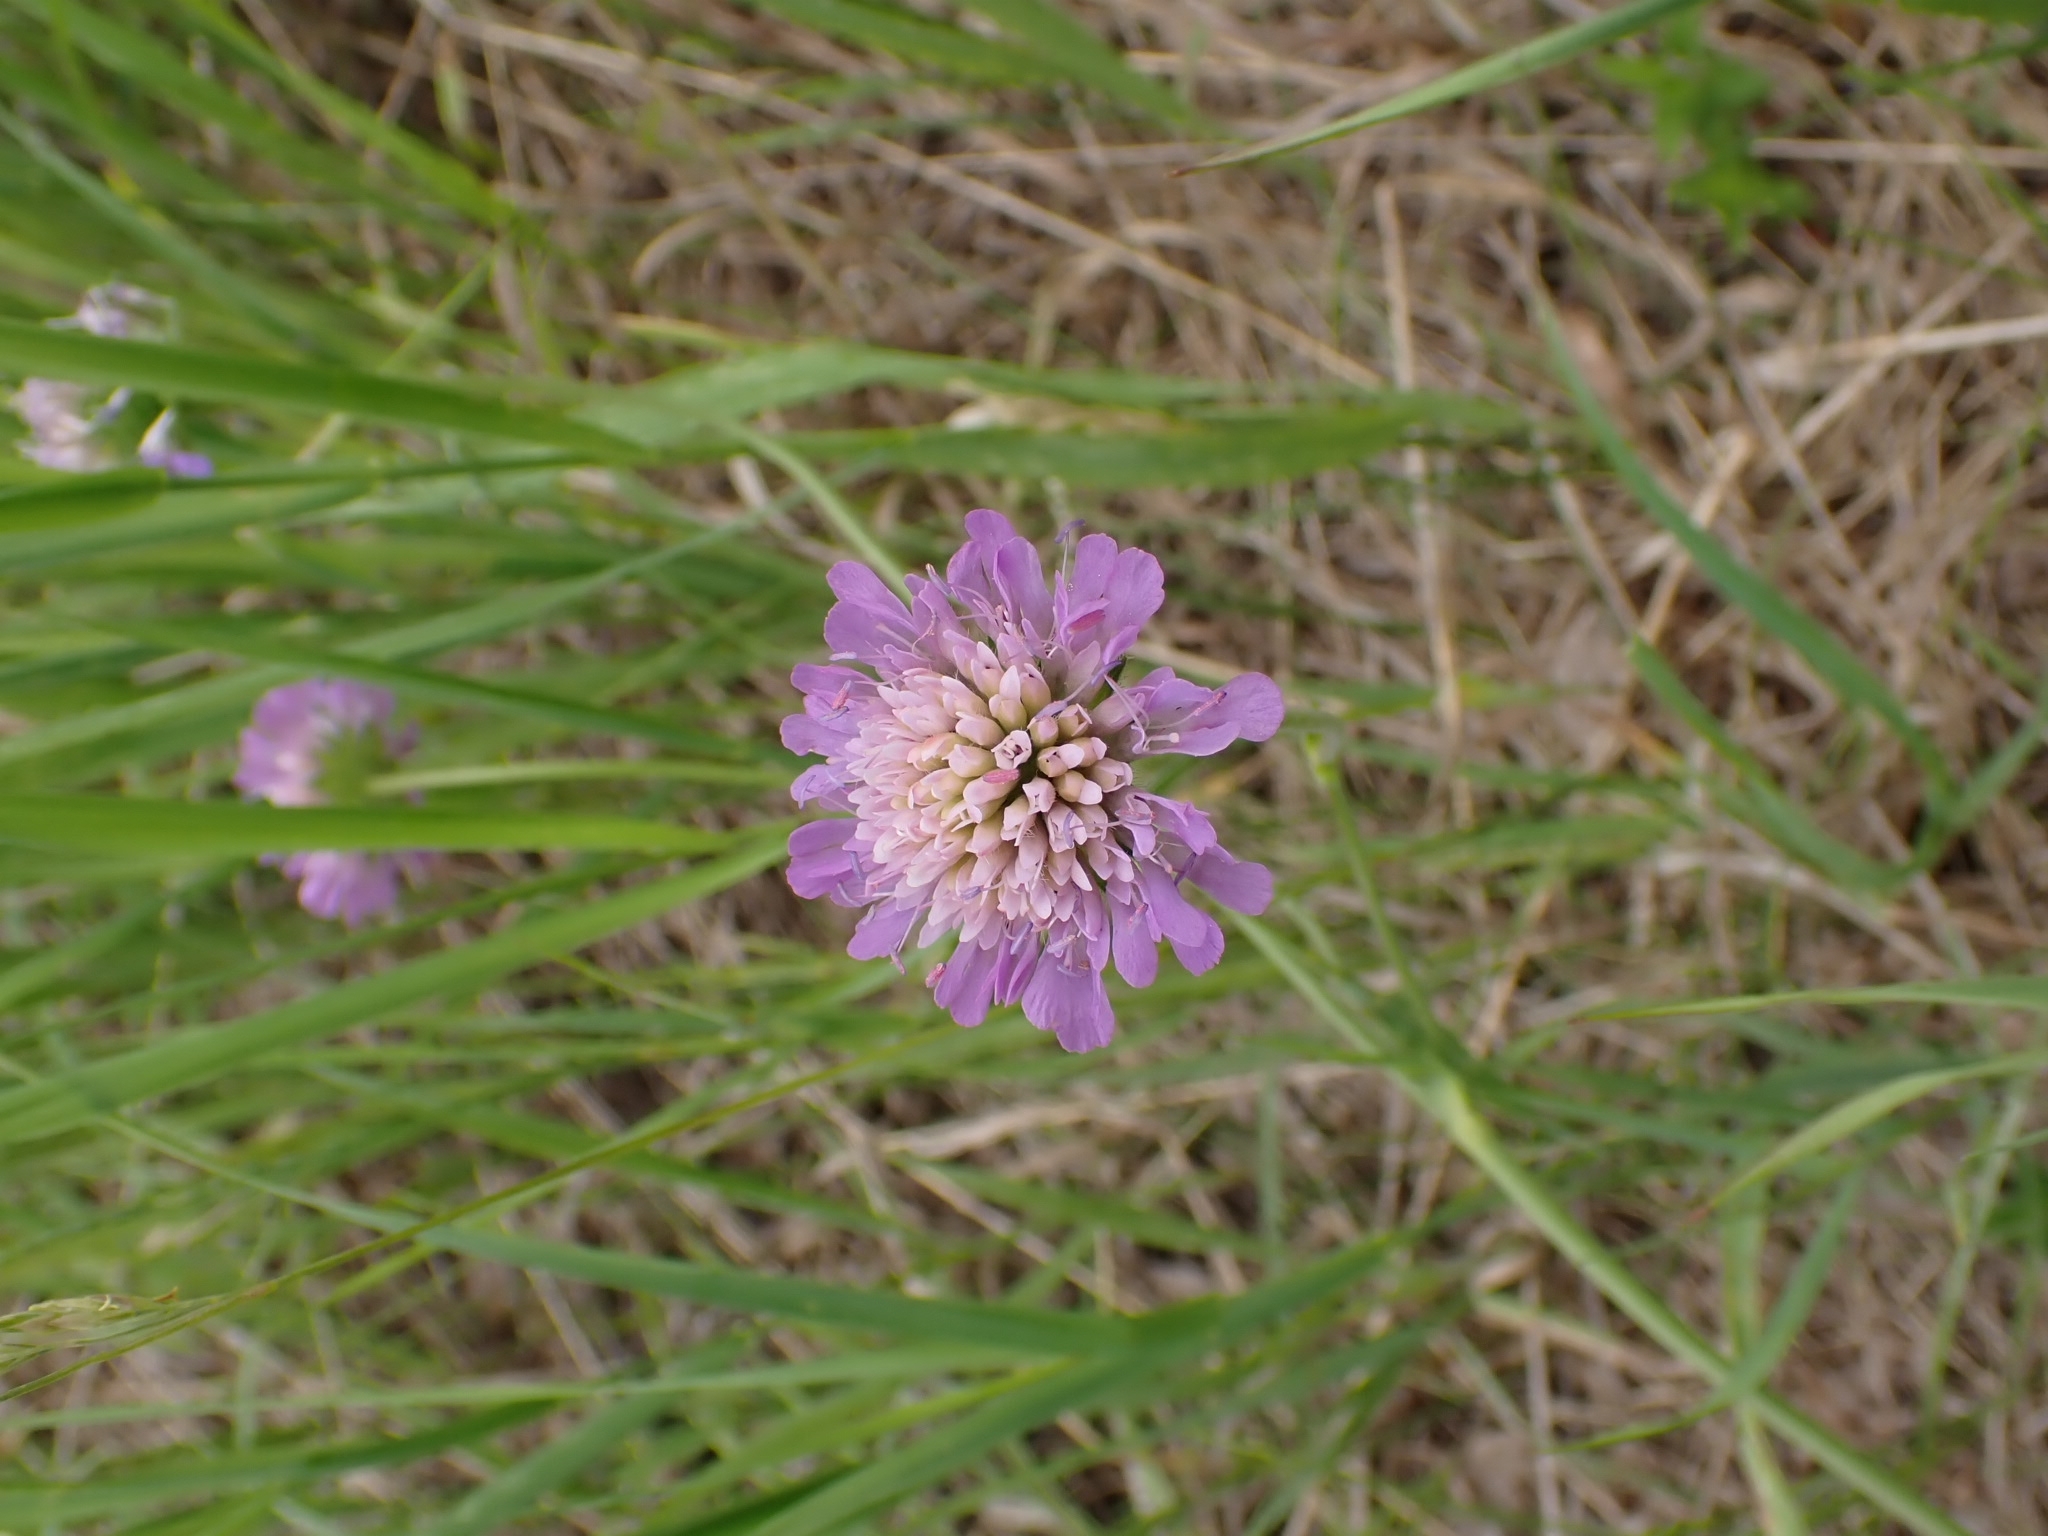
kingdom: Plantae
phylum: Tracheophyta
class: Magnoliopsida
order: Dipsacales
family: Caprifoliaceae
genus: Knautia
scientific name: Knautia arvensis
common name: Field scabiosa
